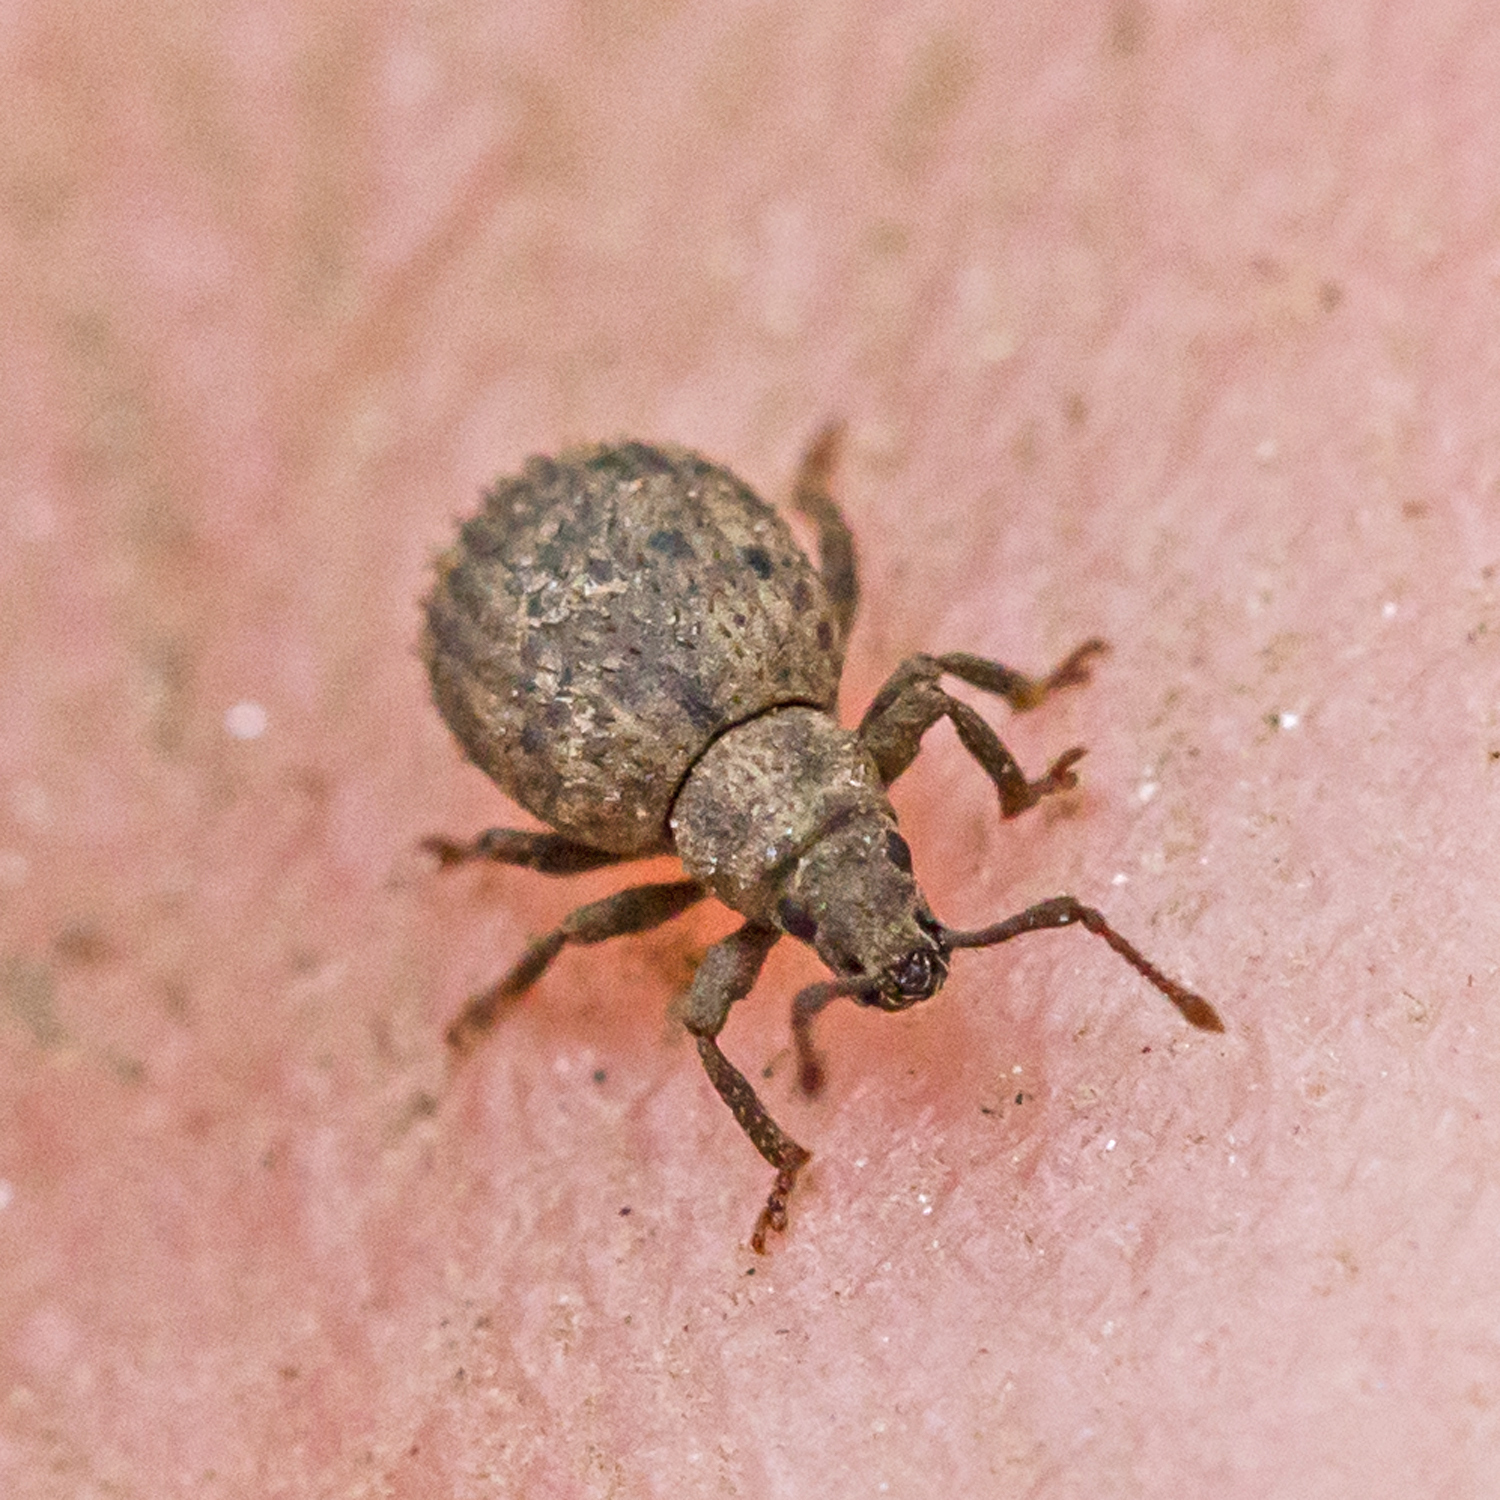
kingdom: Animalia
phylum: Arthropoda
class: Insecta
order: Coleoptera
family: Curculionidae
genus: Myosides
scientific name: Myosides seriehispidus
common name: Broadnosed weevil
